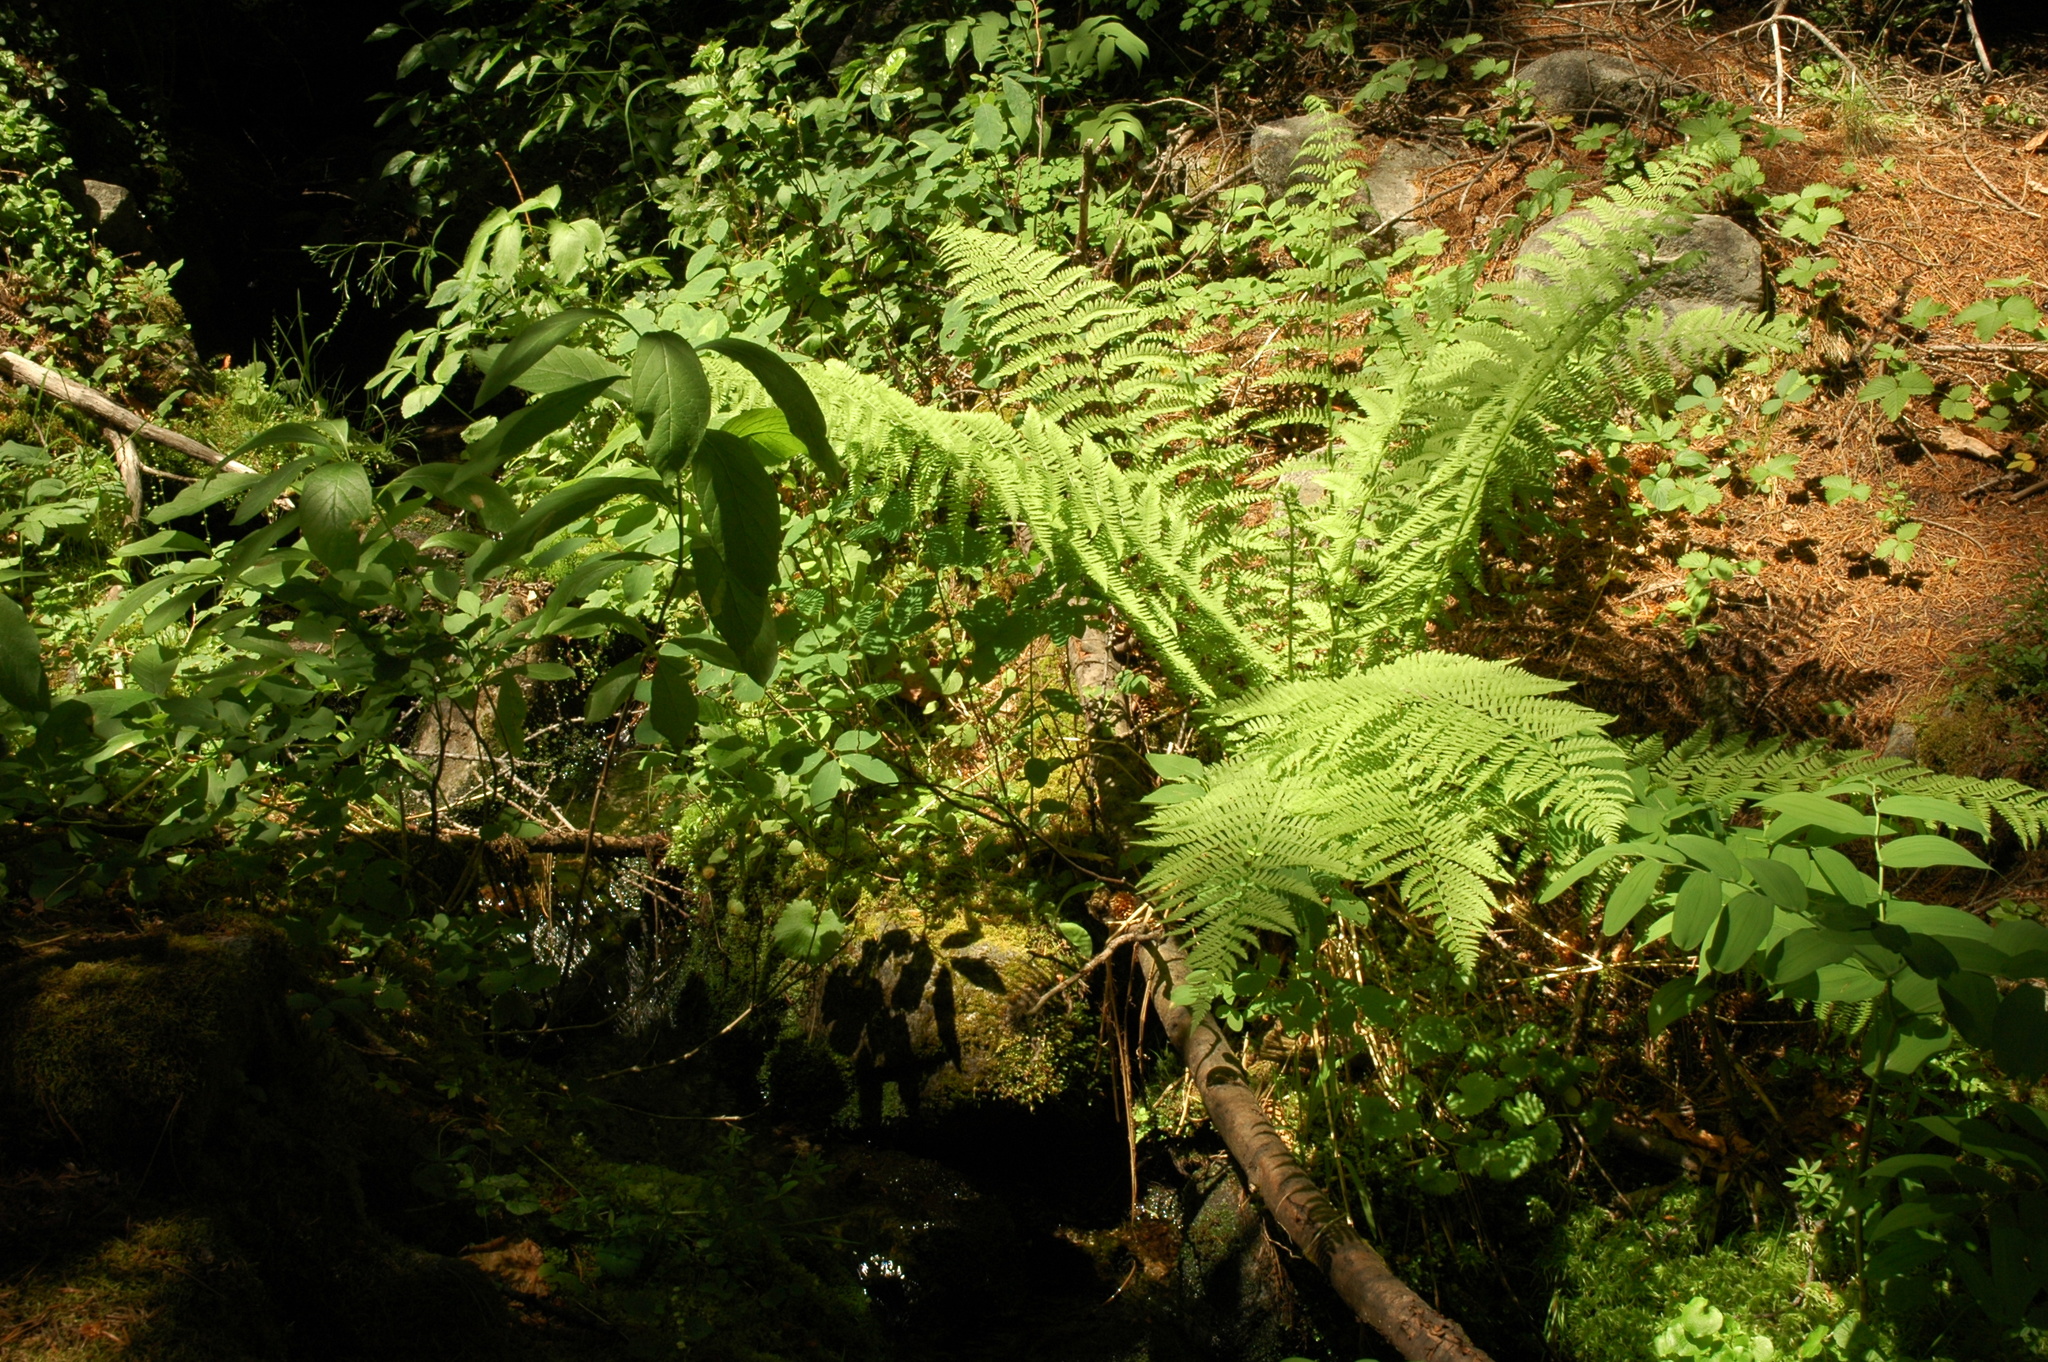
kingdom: Plantae
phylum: Tracheophyta
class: Polypodiopsida
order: Polypodiales
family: Athyriaceae
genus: Athyrium
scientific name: Athyrium cyclosorum
